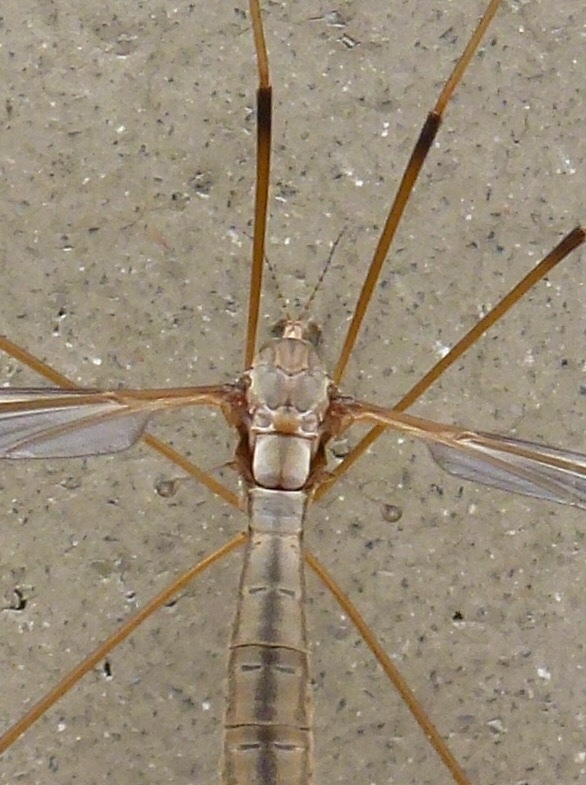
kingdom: Animalia
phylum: Arthropoda
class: Insecta
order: Diptera
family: Tipulidae
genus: Tipula
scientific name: Tipula oleracea
